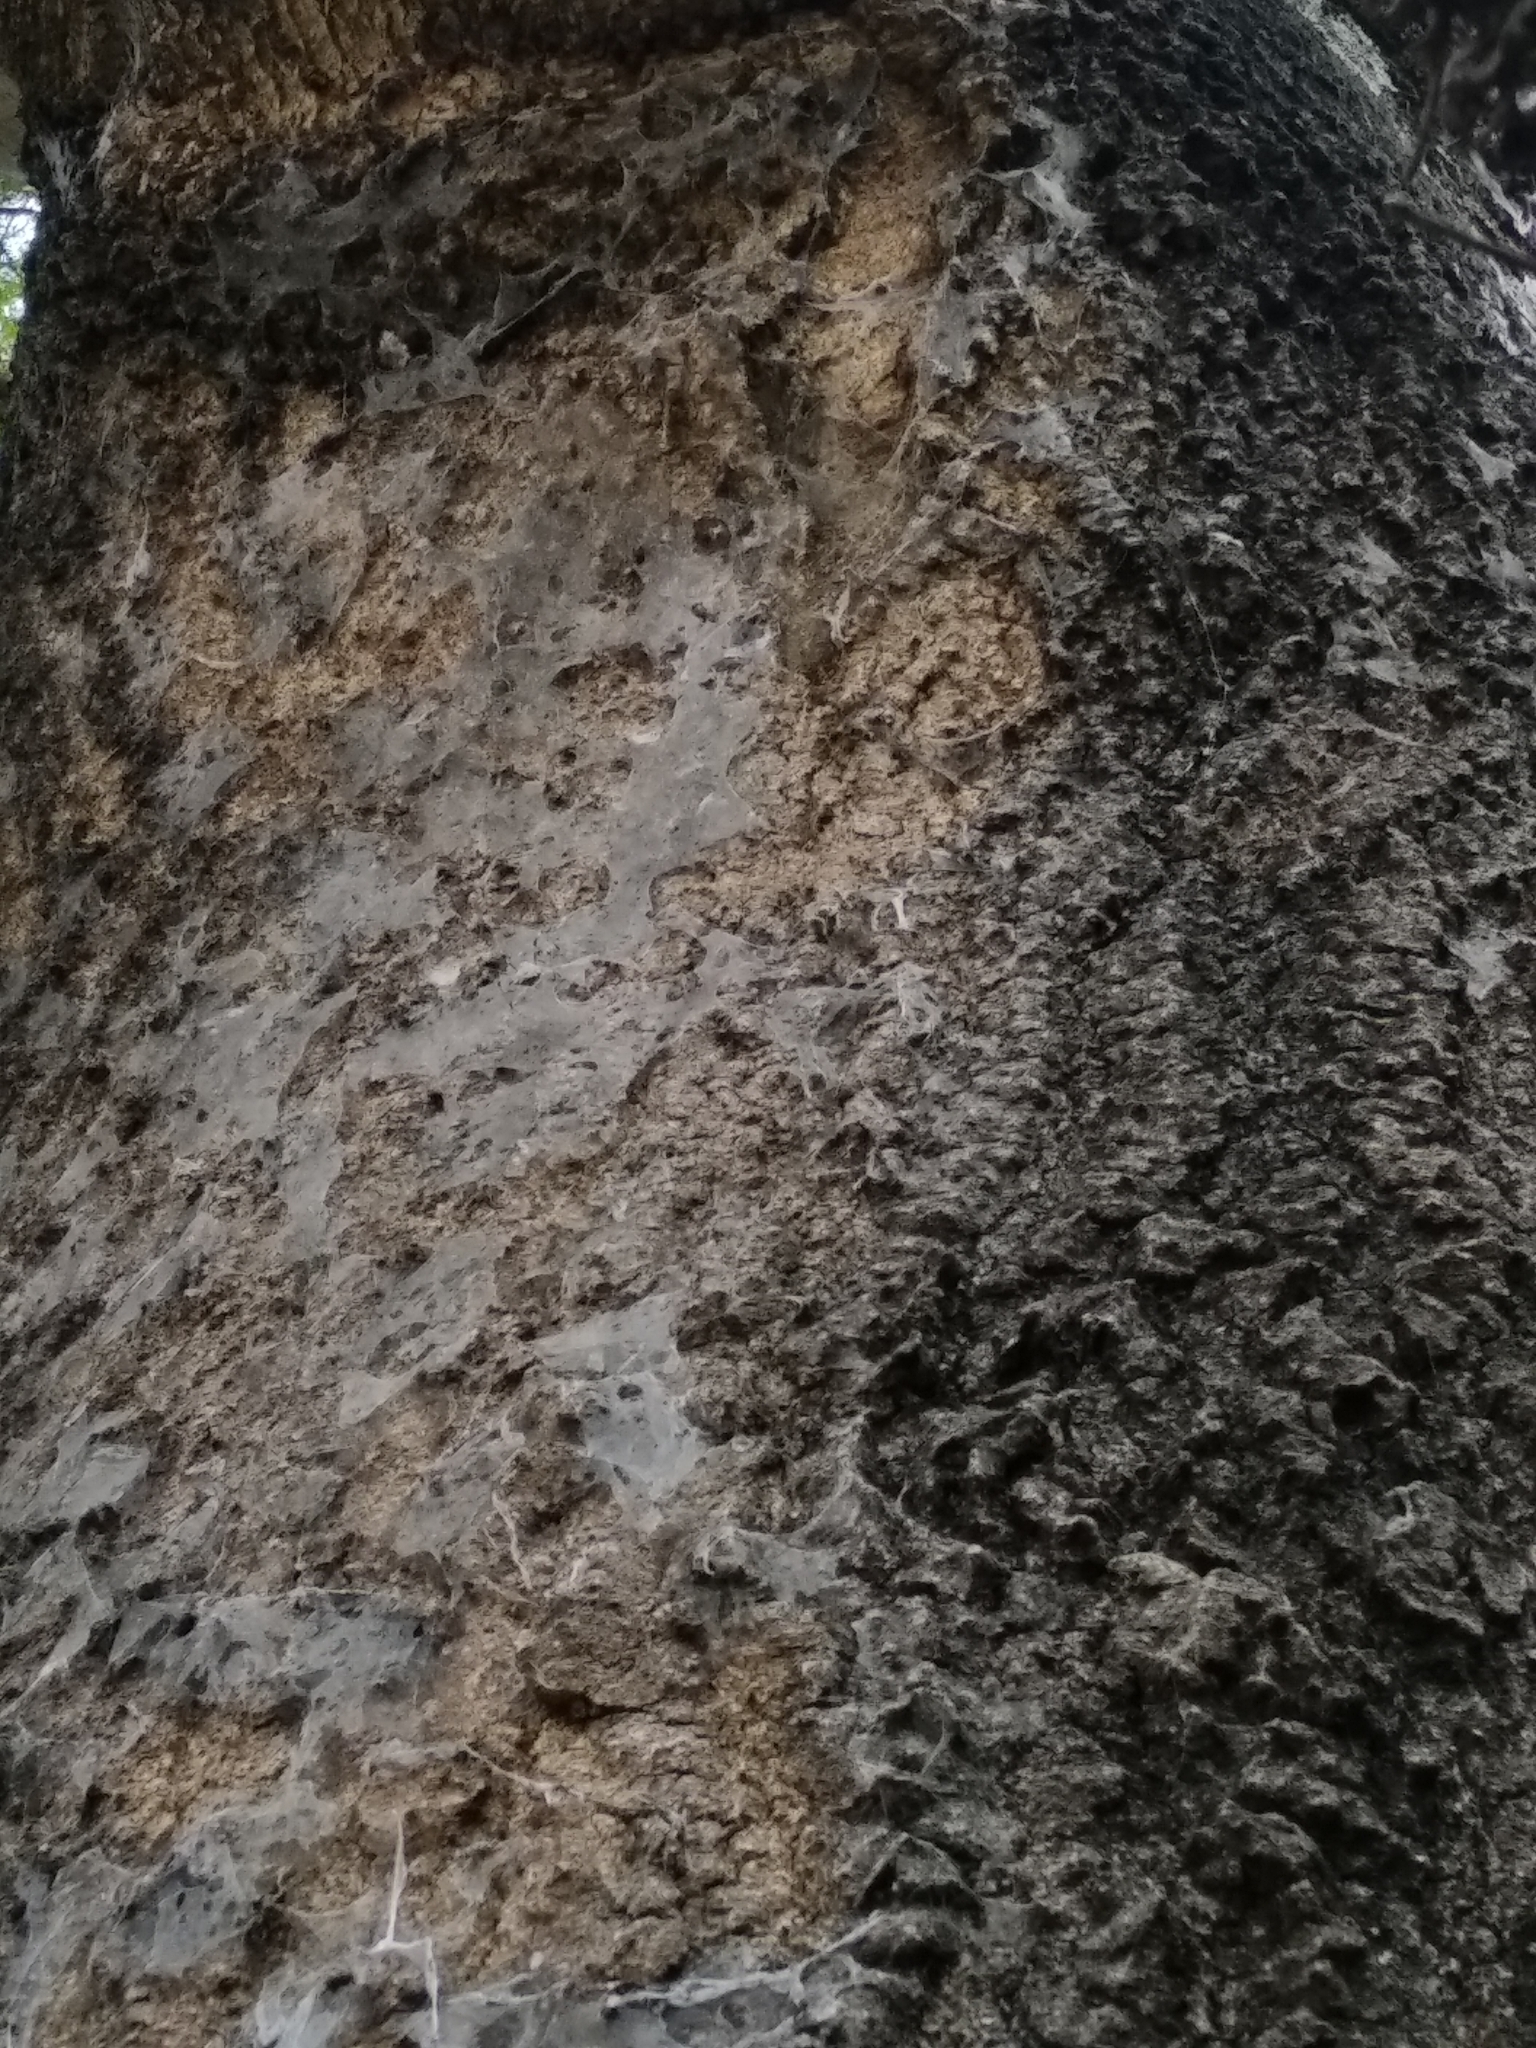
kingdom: Animalia
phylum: Arthropoda
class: Arachnida
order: Araneae
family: Araneidae
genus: Herennia
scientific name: Herennia multipuncta
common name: Spotted coin spider
